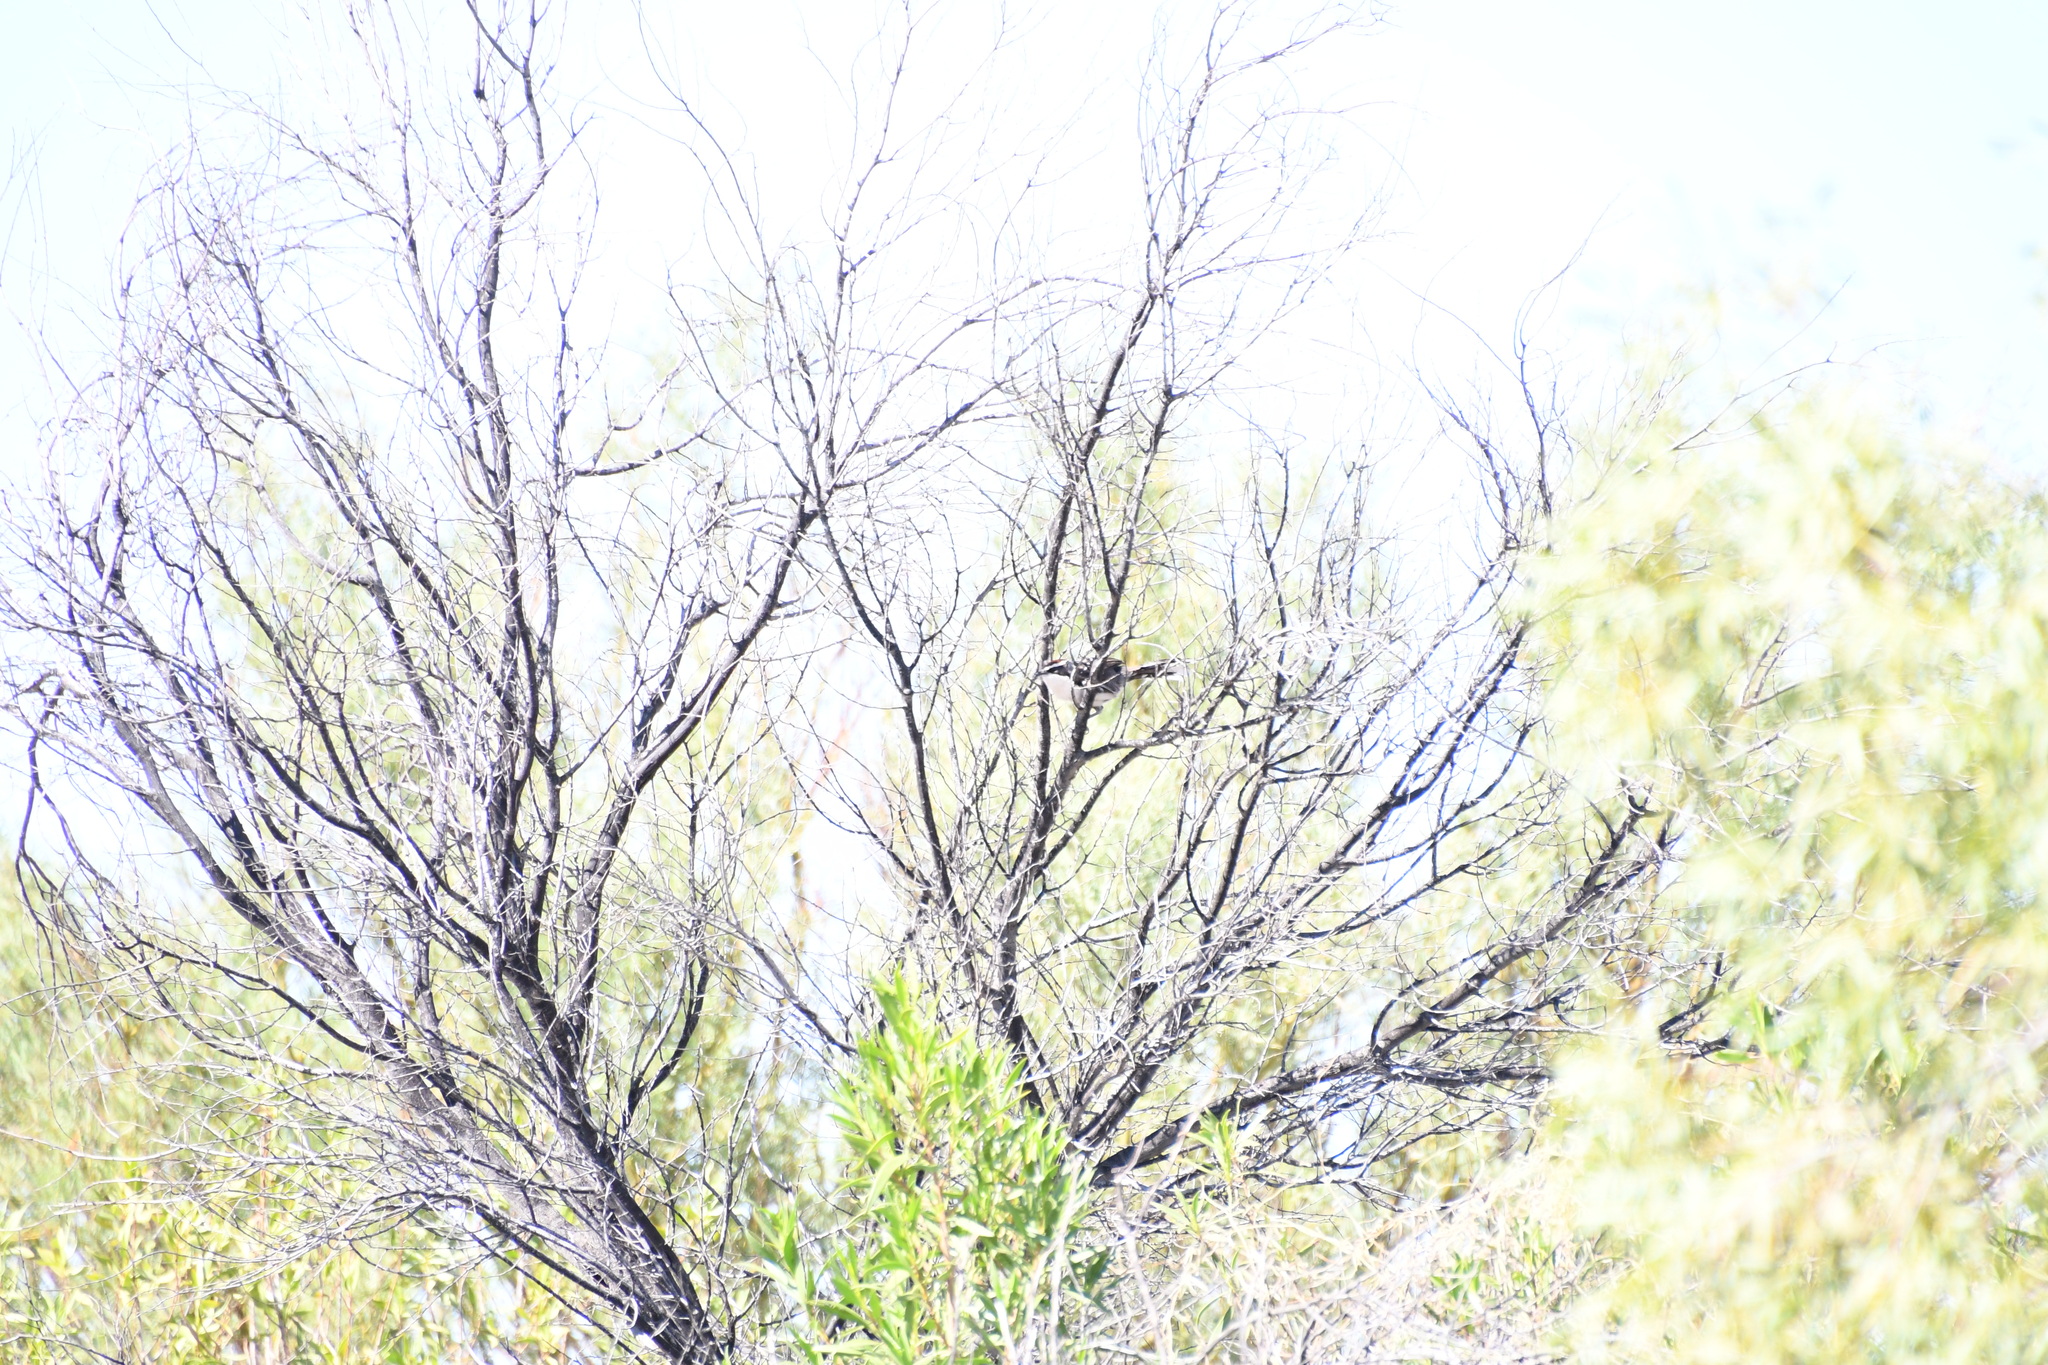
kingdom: Animalia
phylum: Chordata
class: Aves
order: Passeriformes
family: Pomatostomidae
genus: Pomatostomus
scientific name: Pomatostomus ruficeps
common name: Chestnut-crowned babbler
